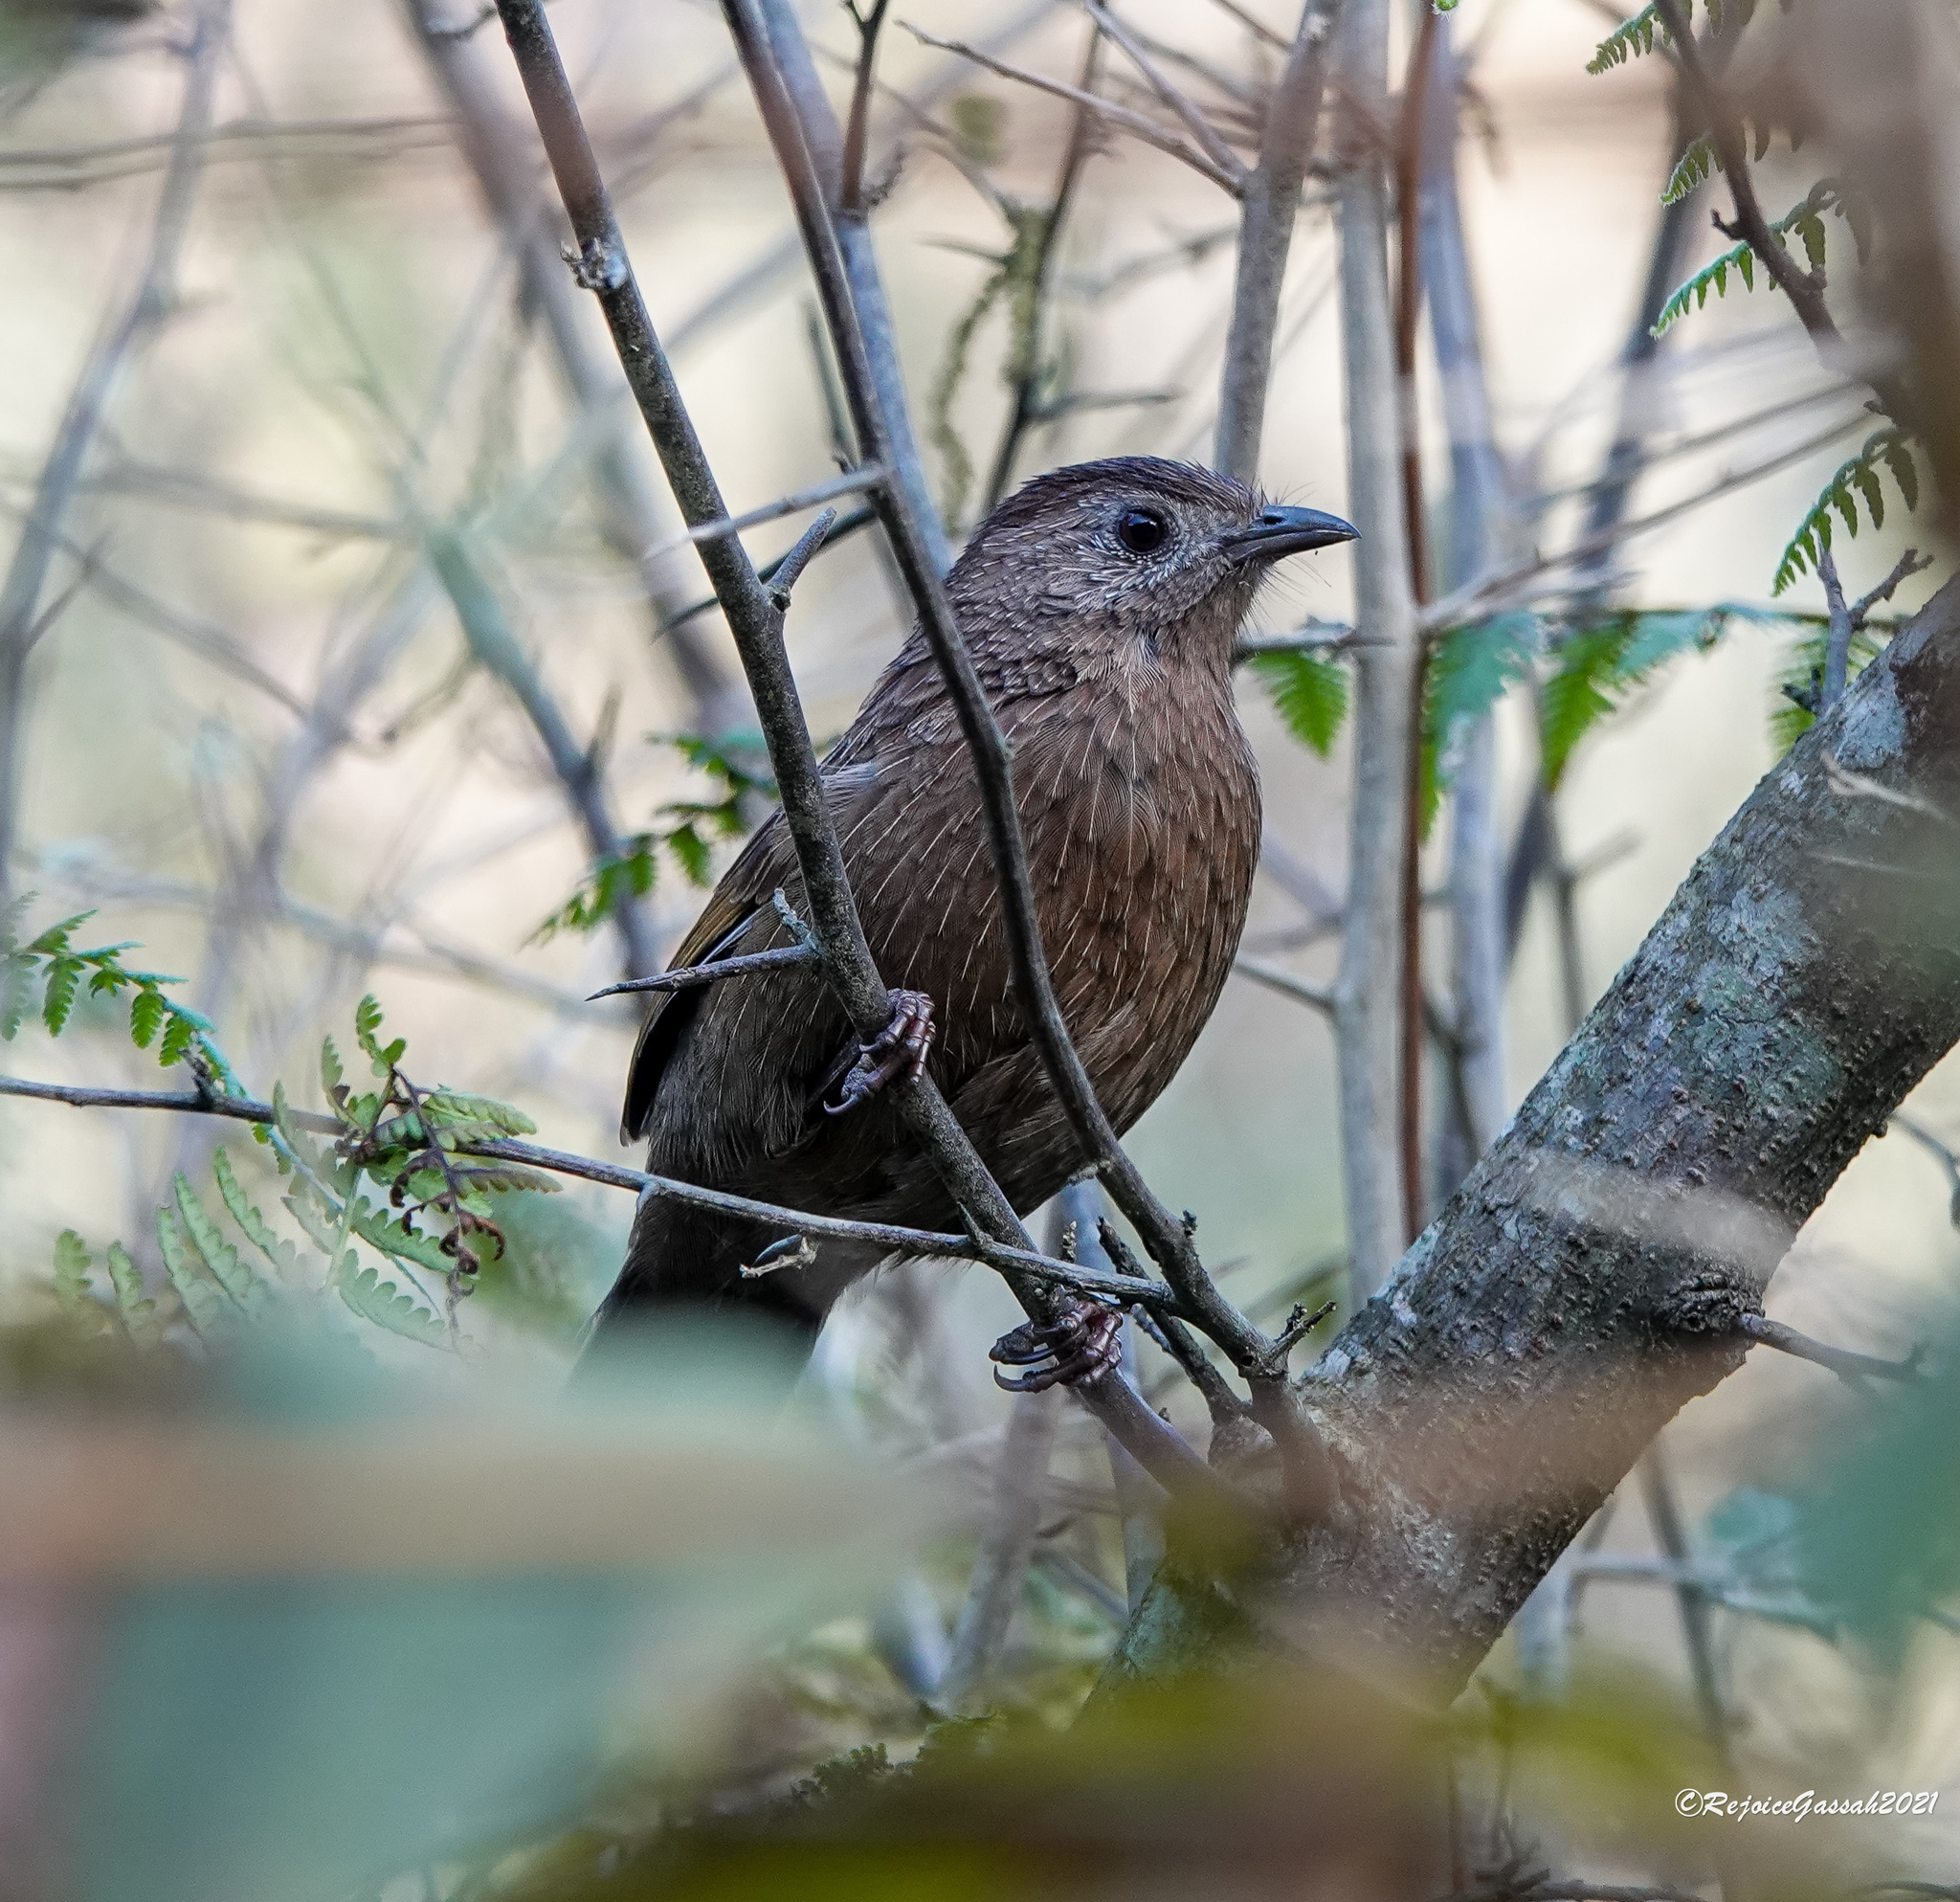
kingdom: Animalia
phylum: Chordata
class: Aves
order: Passeriformes
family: Leiothrichidae
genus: Trochalopteron
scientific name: Trochalopteron imbricatum
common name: Bhutan laughingthrush
